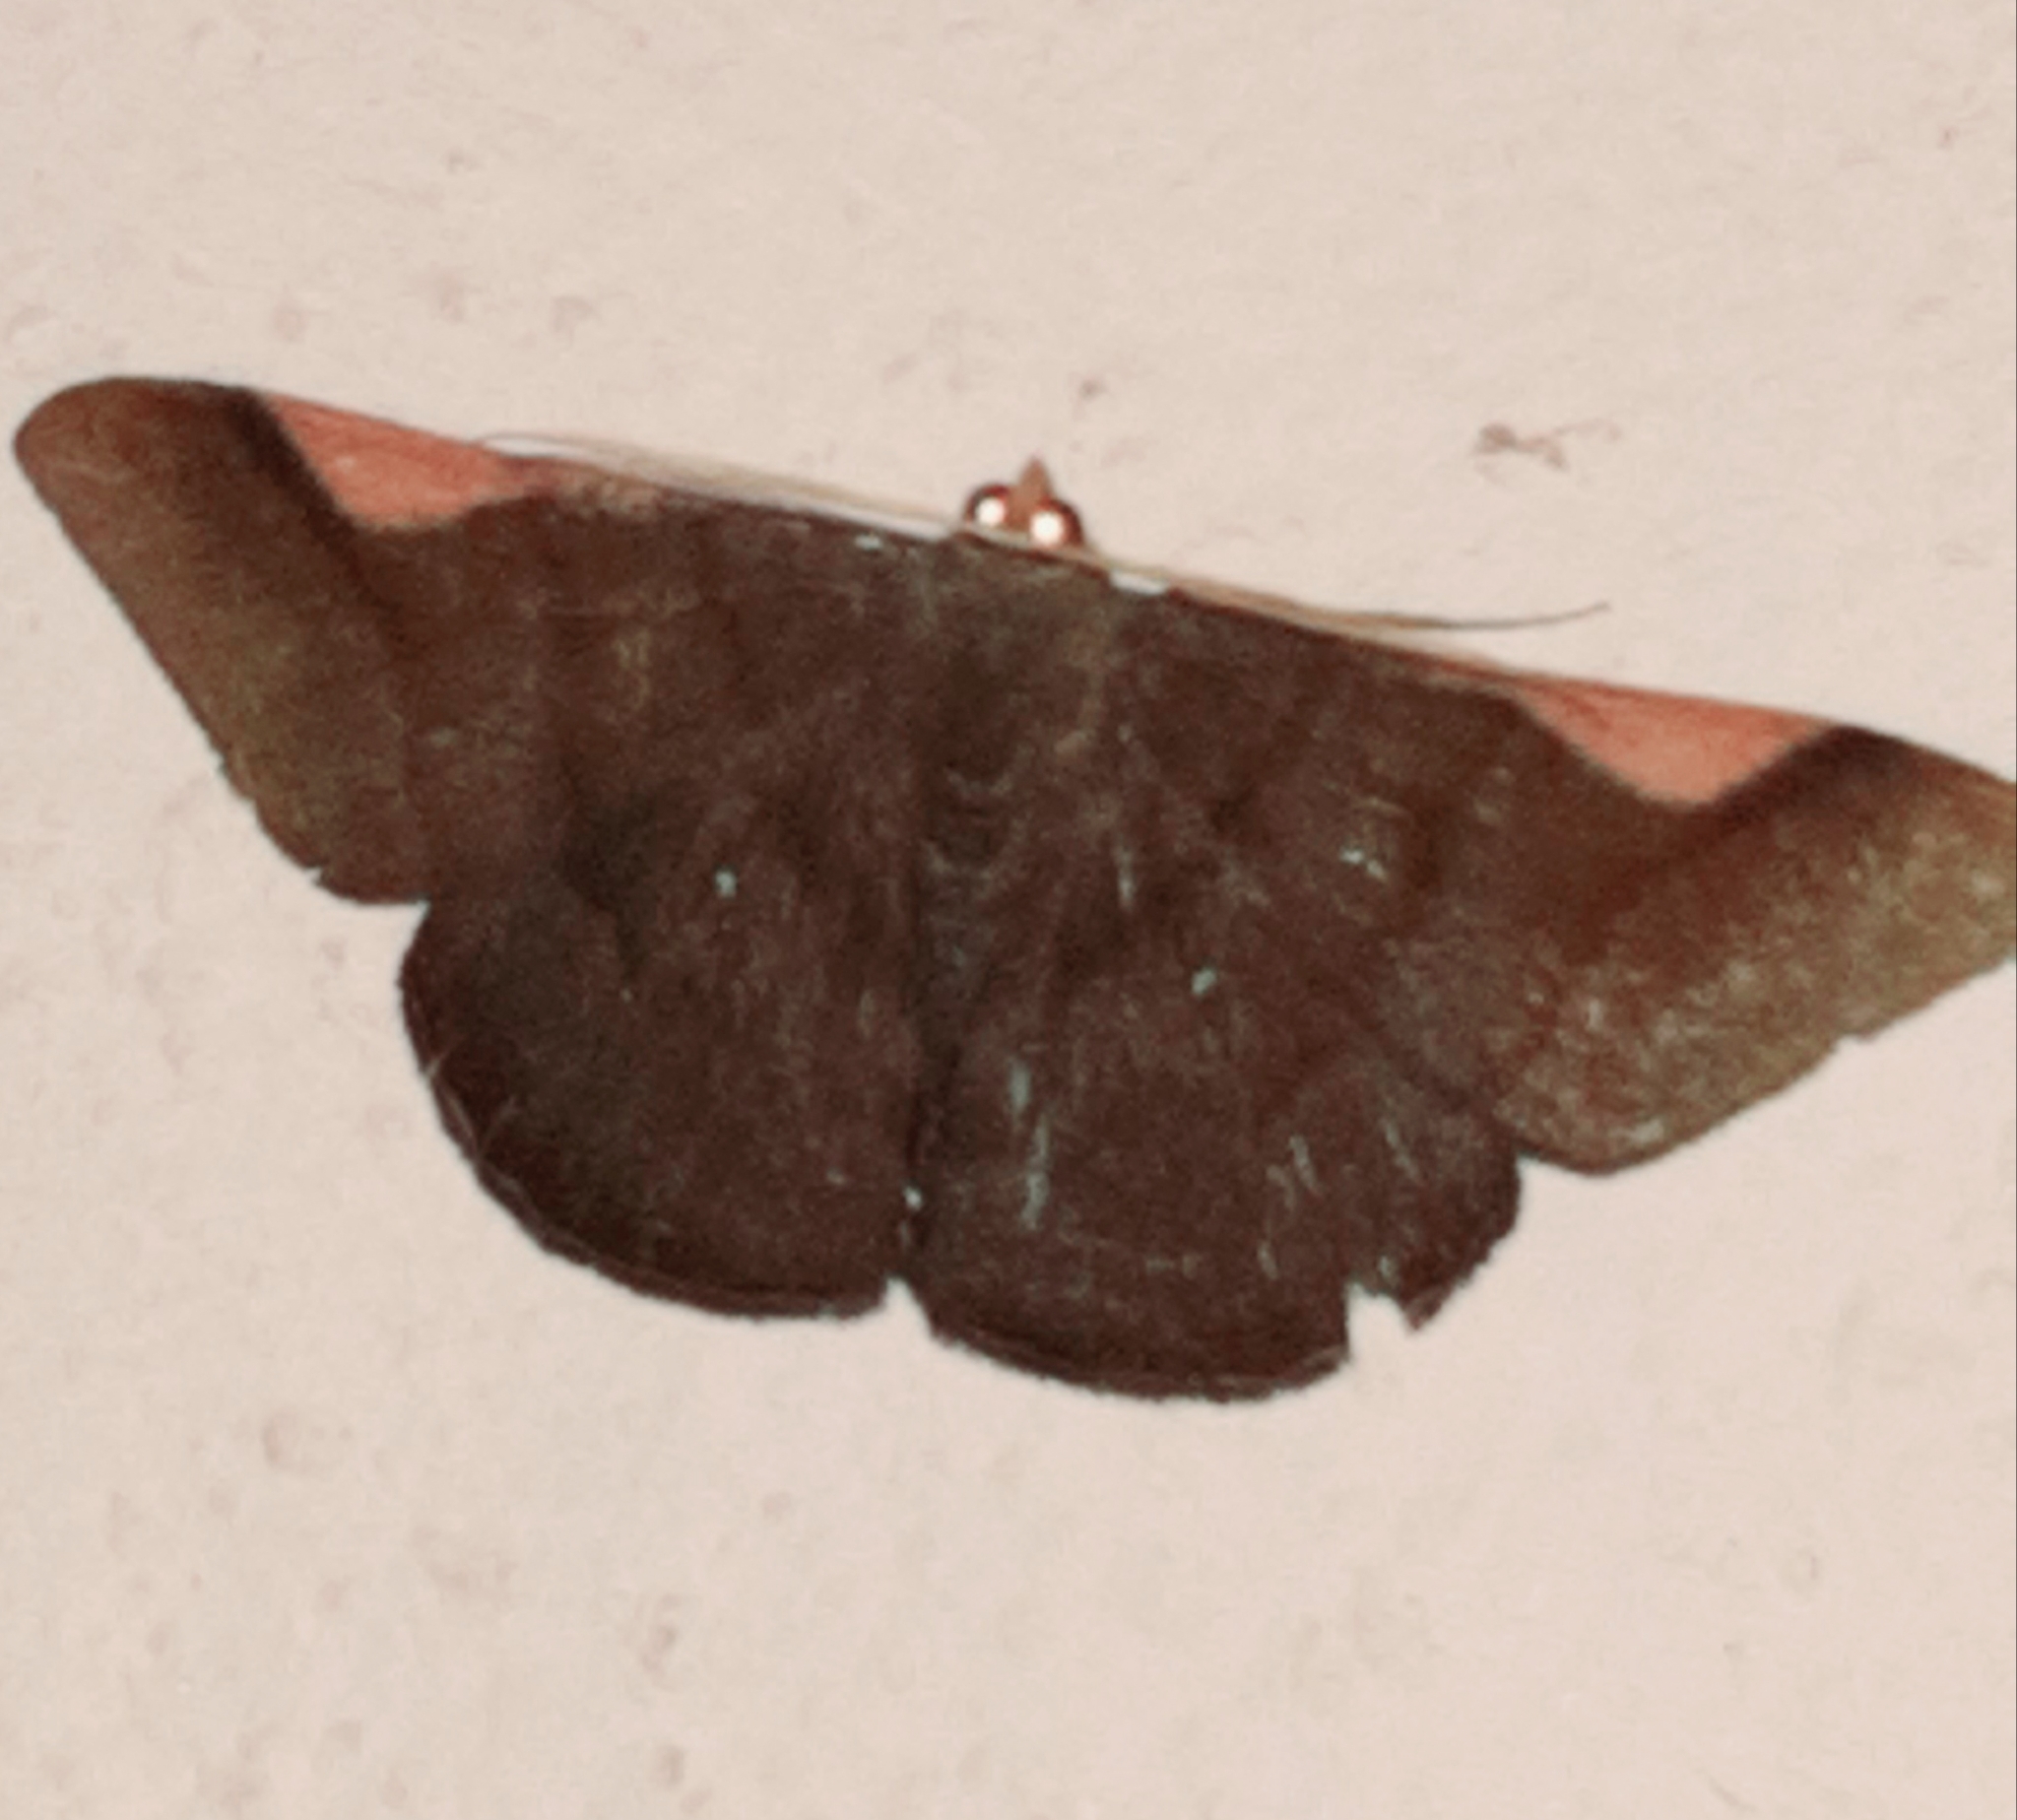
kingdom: Animalia
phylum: Arthropoda
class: Insecta
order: Lepidoptera
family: Geometridae
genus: Sphacelodes
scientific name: Sphacelodes vulneraria
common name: Looper moth
